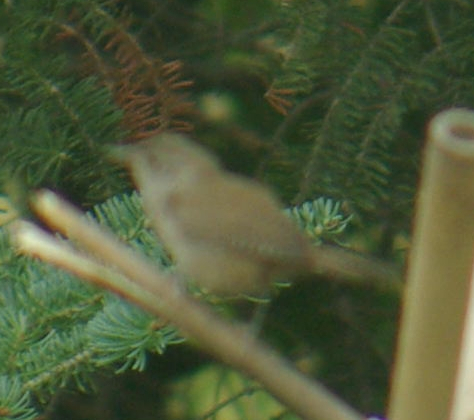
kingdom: Animalia
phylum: Chordata
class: Aves
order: Passeriformes
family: Troglodytidae
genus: Troglodytes
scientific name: Troglodytes aedon
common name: House wren
